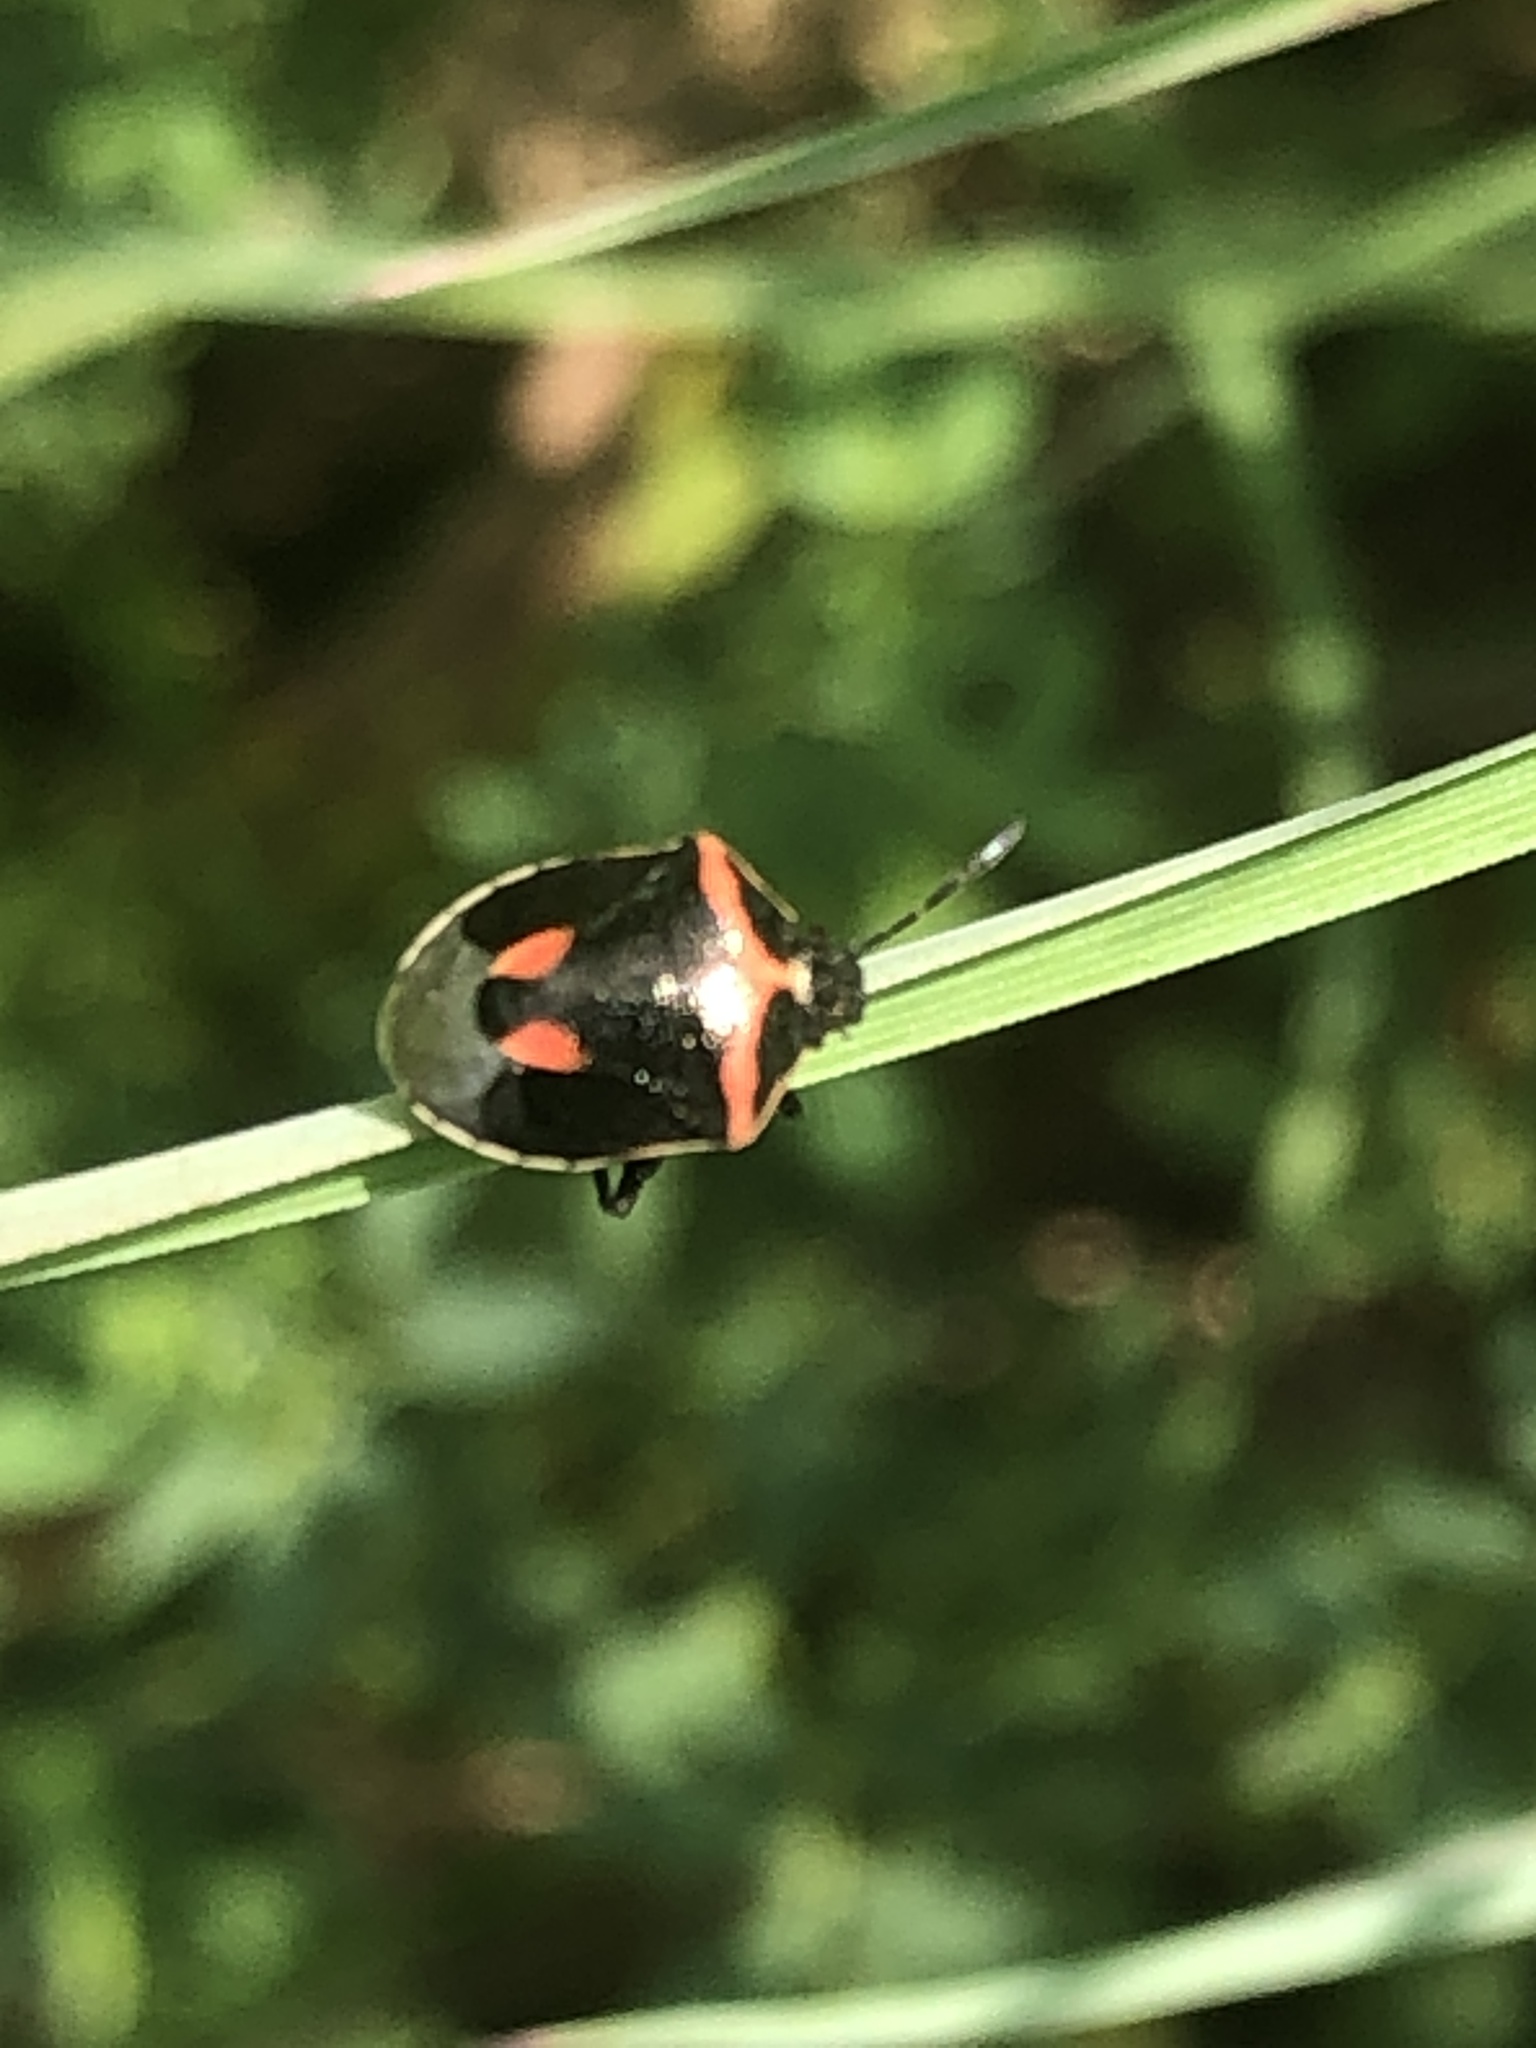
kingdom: Animalia
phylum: Arthropoda
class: Insecta
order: Hemiptera
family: Pentatomidae
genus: Cosmopepla
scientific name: Cosmopepla lintneriana
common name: Twice-stabbed stink bug
